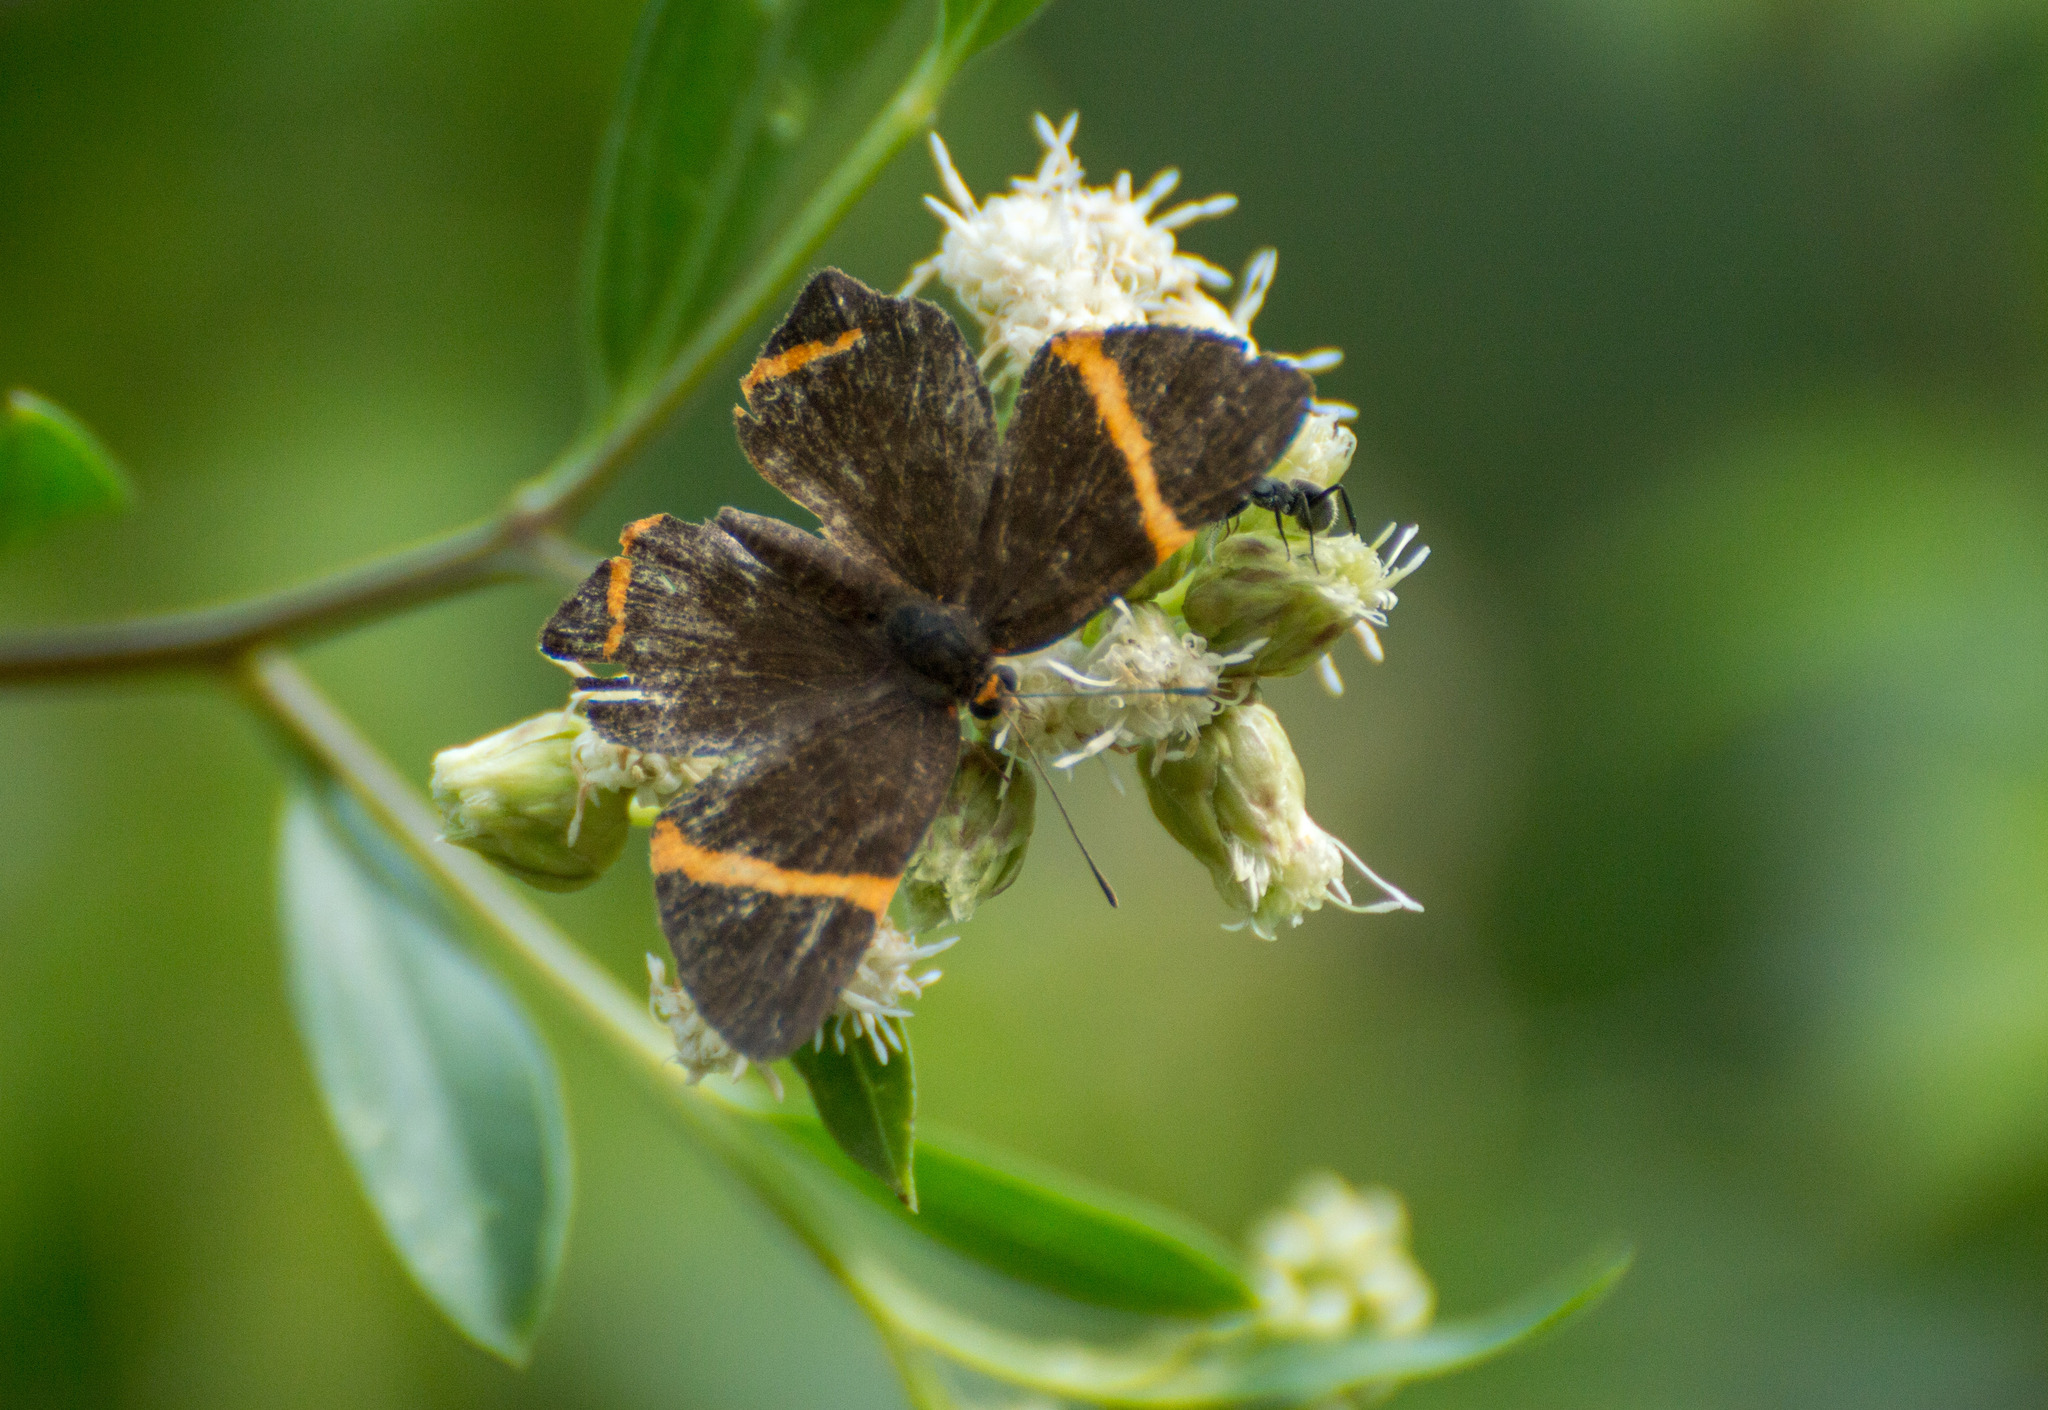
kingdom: Animalia
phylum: Arthropoda
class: Insecta
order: Lepidoptera
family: Riodinidae
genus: Riodina
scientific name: Riodina lysippoides
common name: Little dancer metalmark
